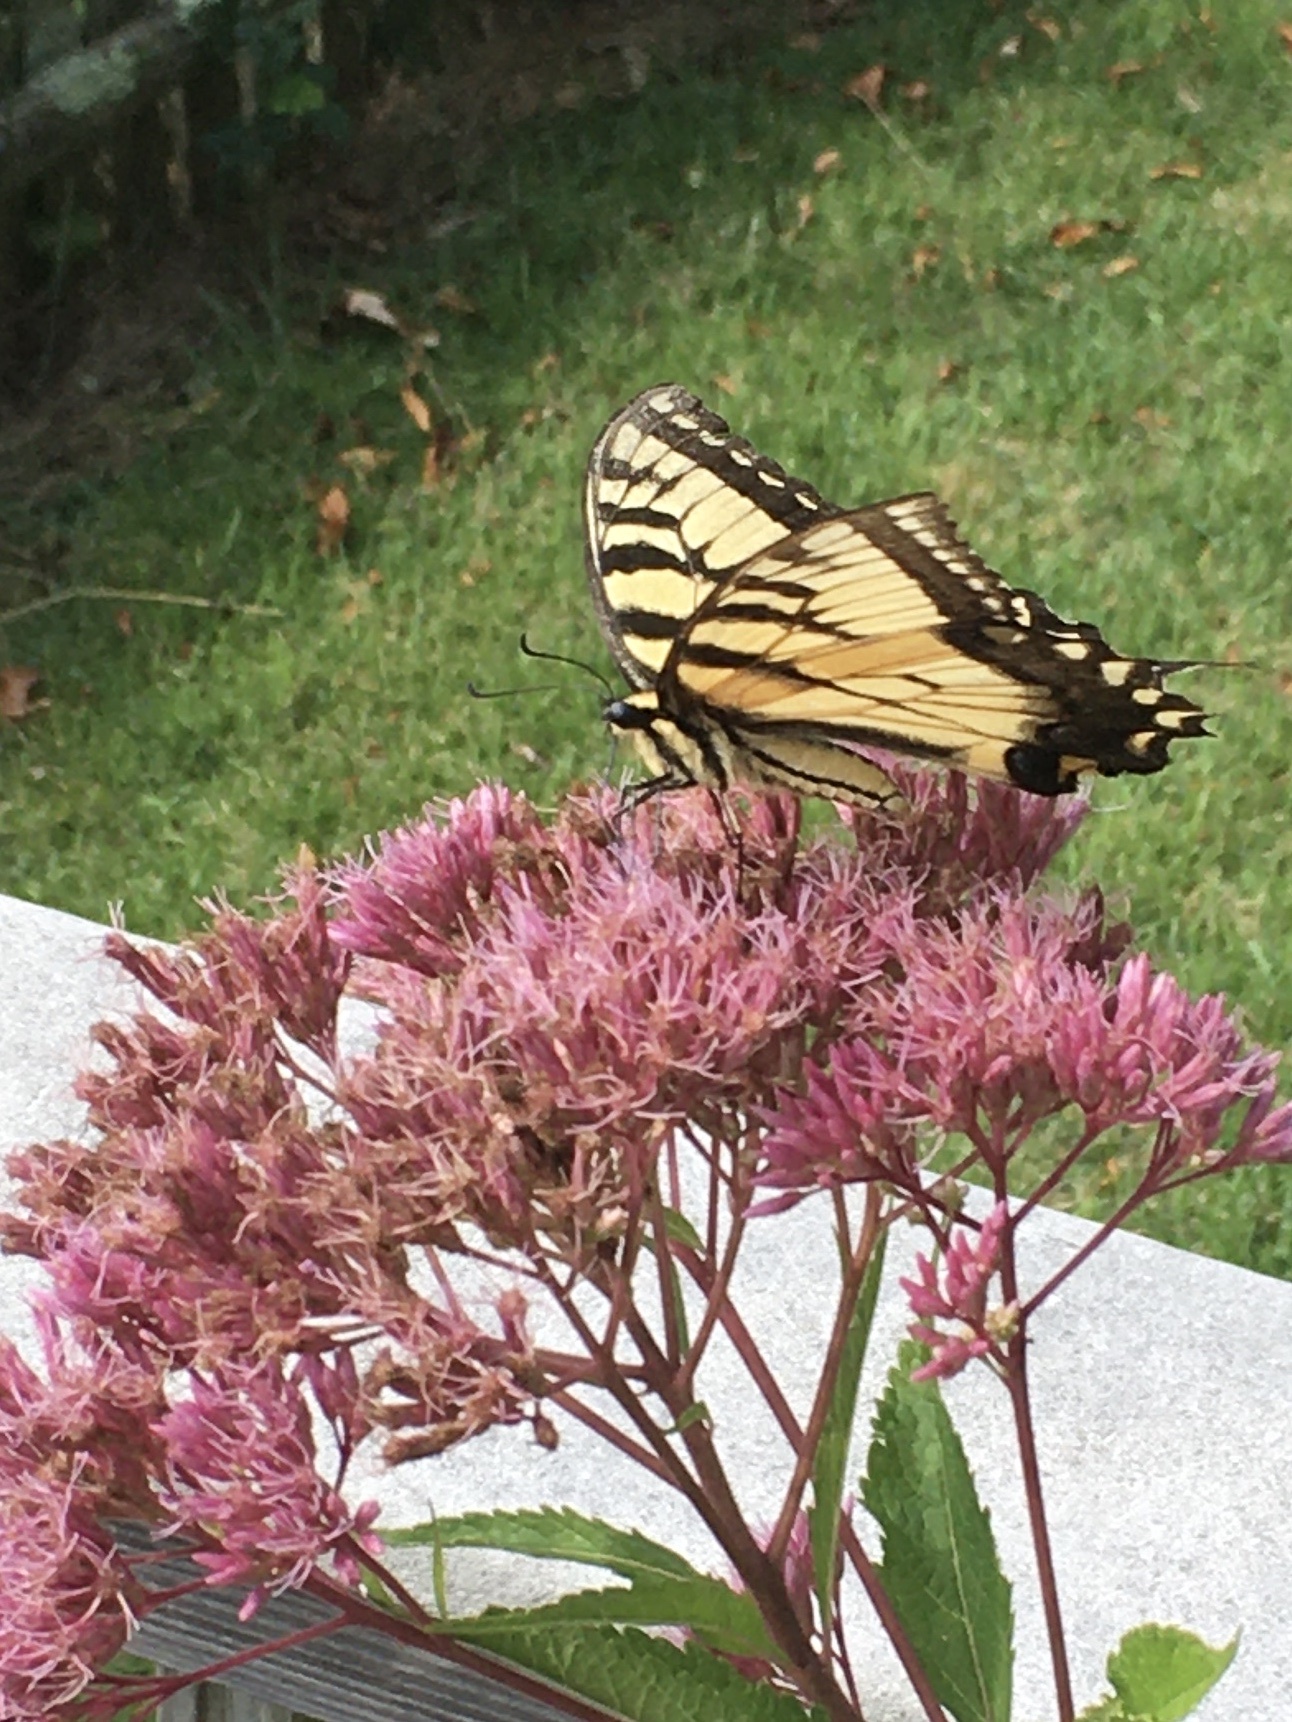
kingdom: Animalia
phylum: Arthropoda
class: Insecta
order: Lepidoptera
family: Papilionidae
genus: Papilio
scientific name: Papilio glaucus
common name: Tiger swallowtail
